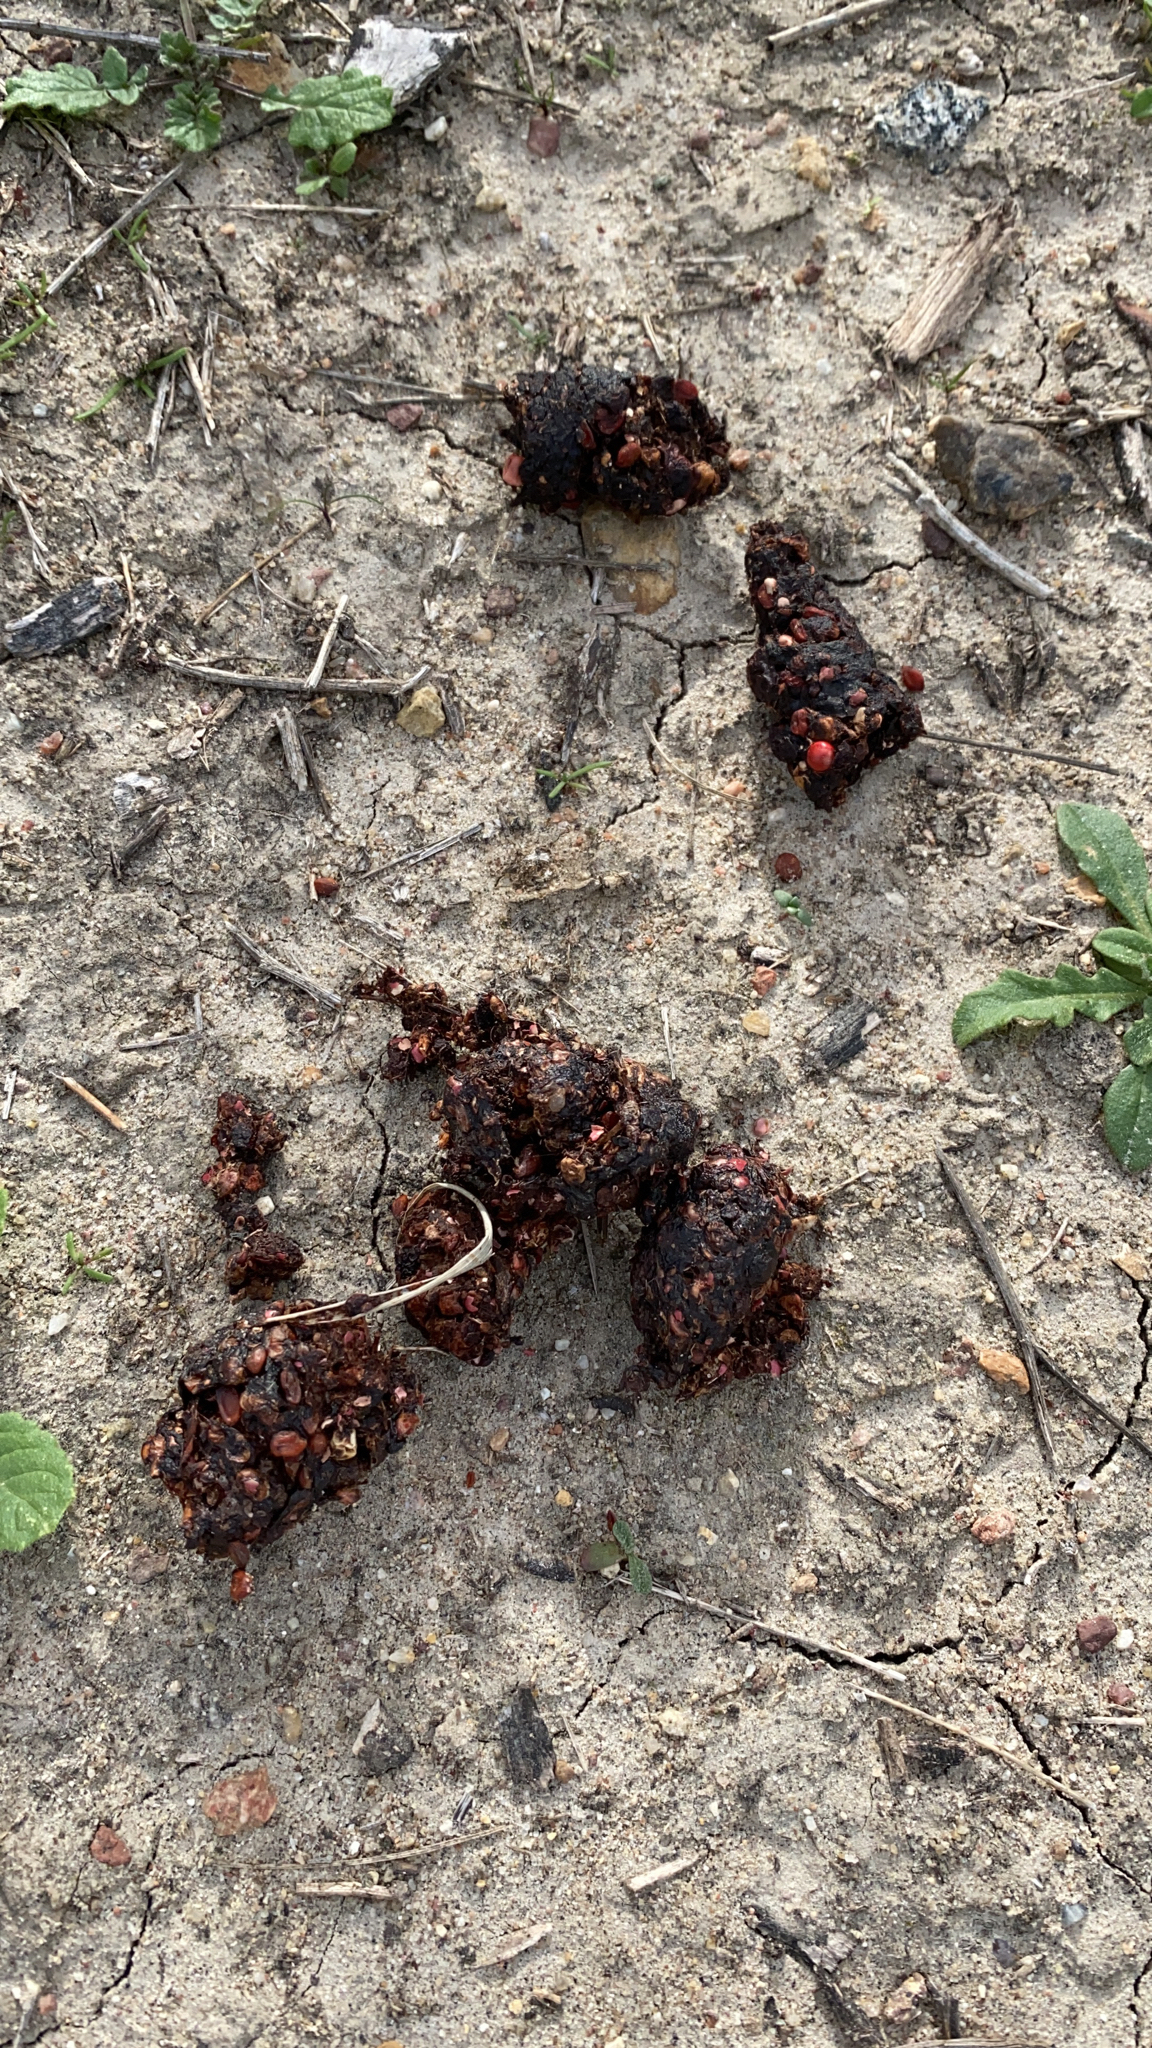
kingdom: Animalia
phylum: Chordata
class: Mammalia
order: Carnivora
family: Canidae
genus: Canis
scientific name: Canis latrans
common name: Coyote
